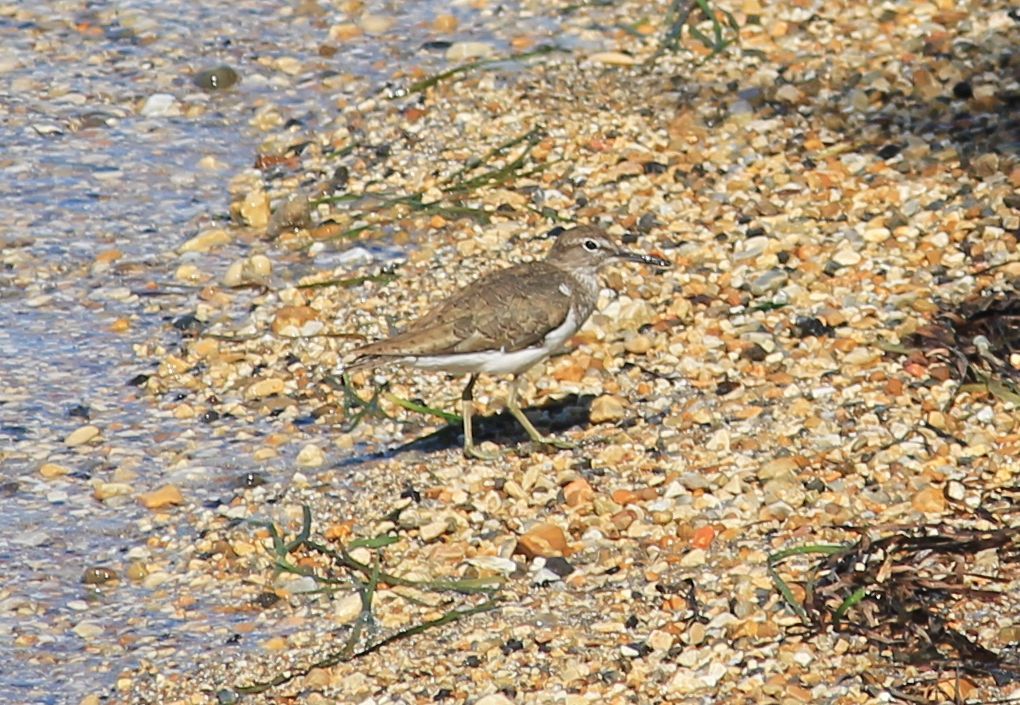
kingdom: Animalia
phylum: Chordata
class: Aves
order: Charadriiformes
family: Scolopacidae
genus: Actitis
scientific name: Actitis hypoleucos
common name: Common sandpiper
